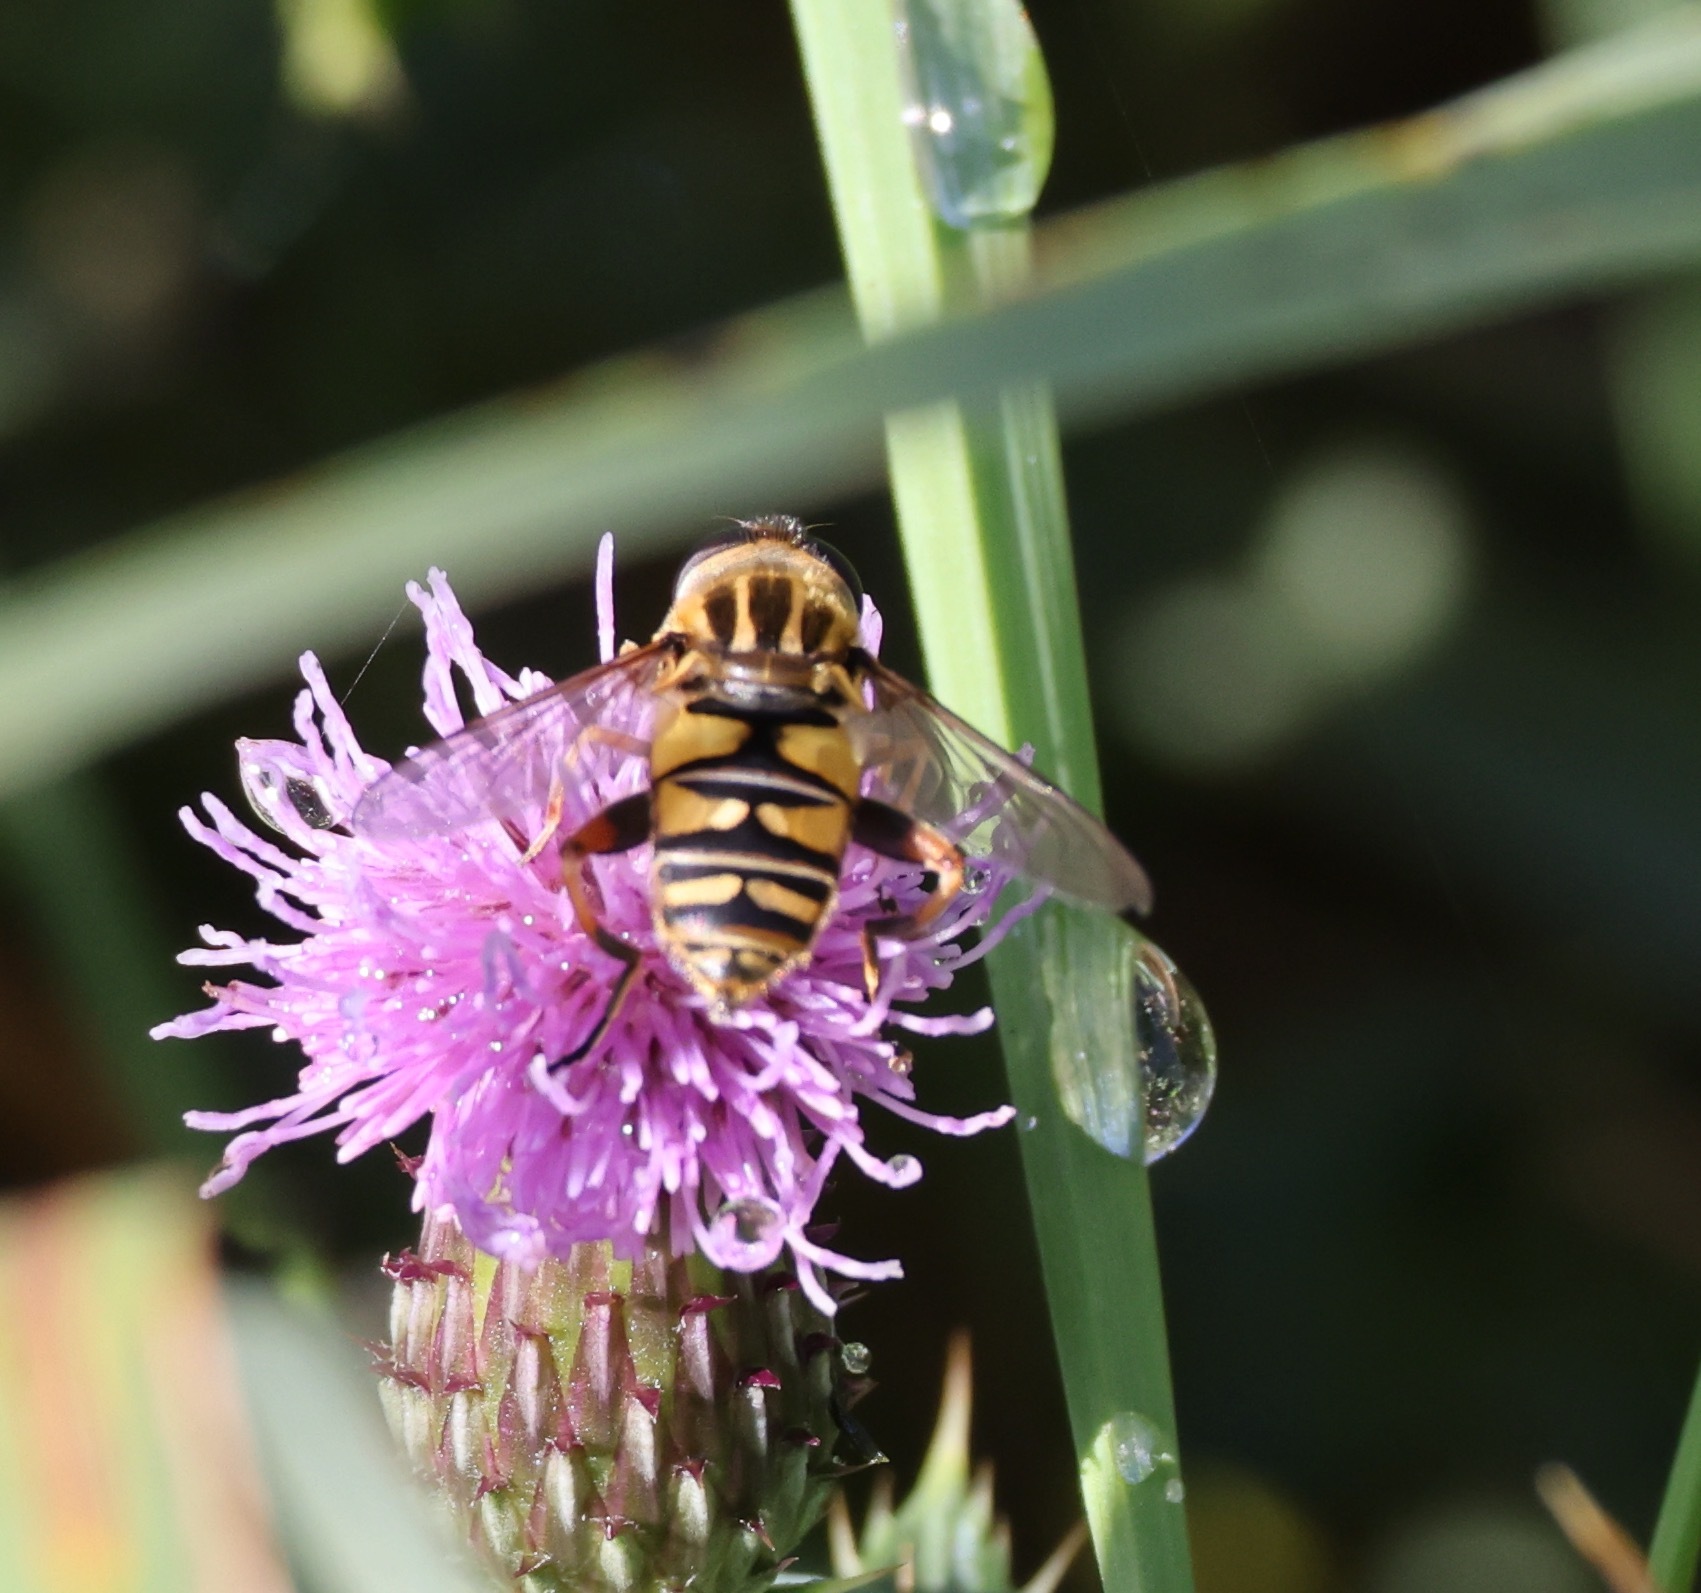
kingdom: Animalia
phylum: Arthropoda
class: Insecta
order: Diptera
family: Syrphidae
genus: Helophilus
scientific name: Helophilus pendulus
